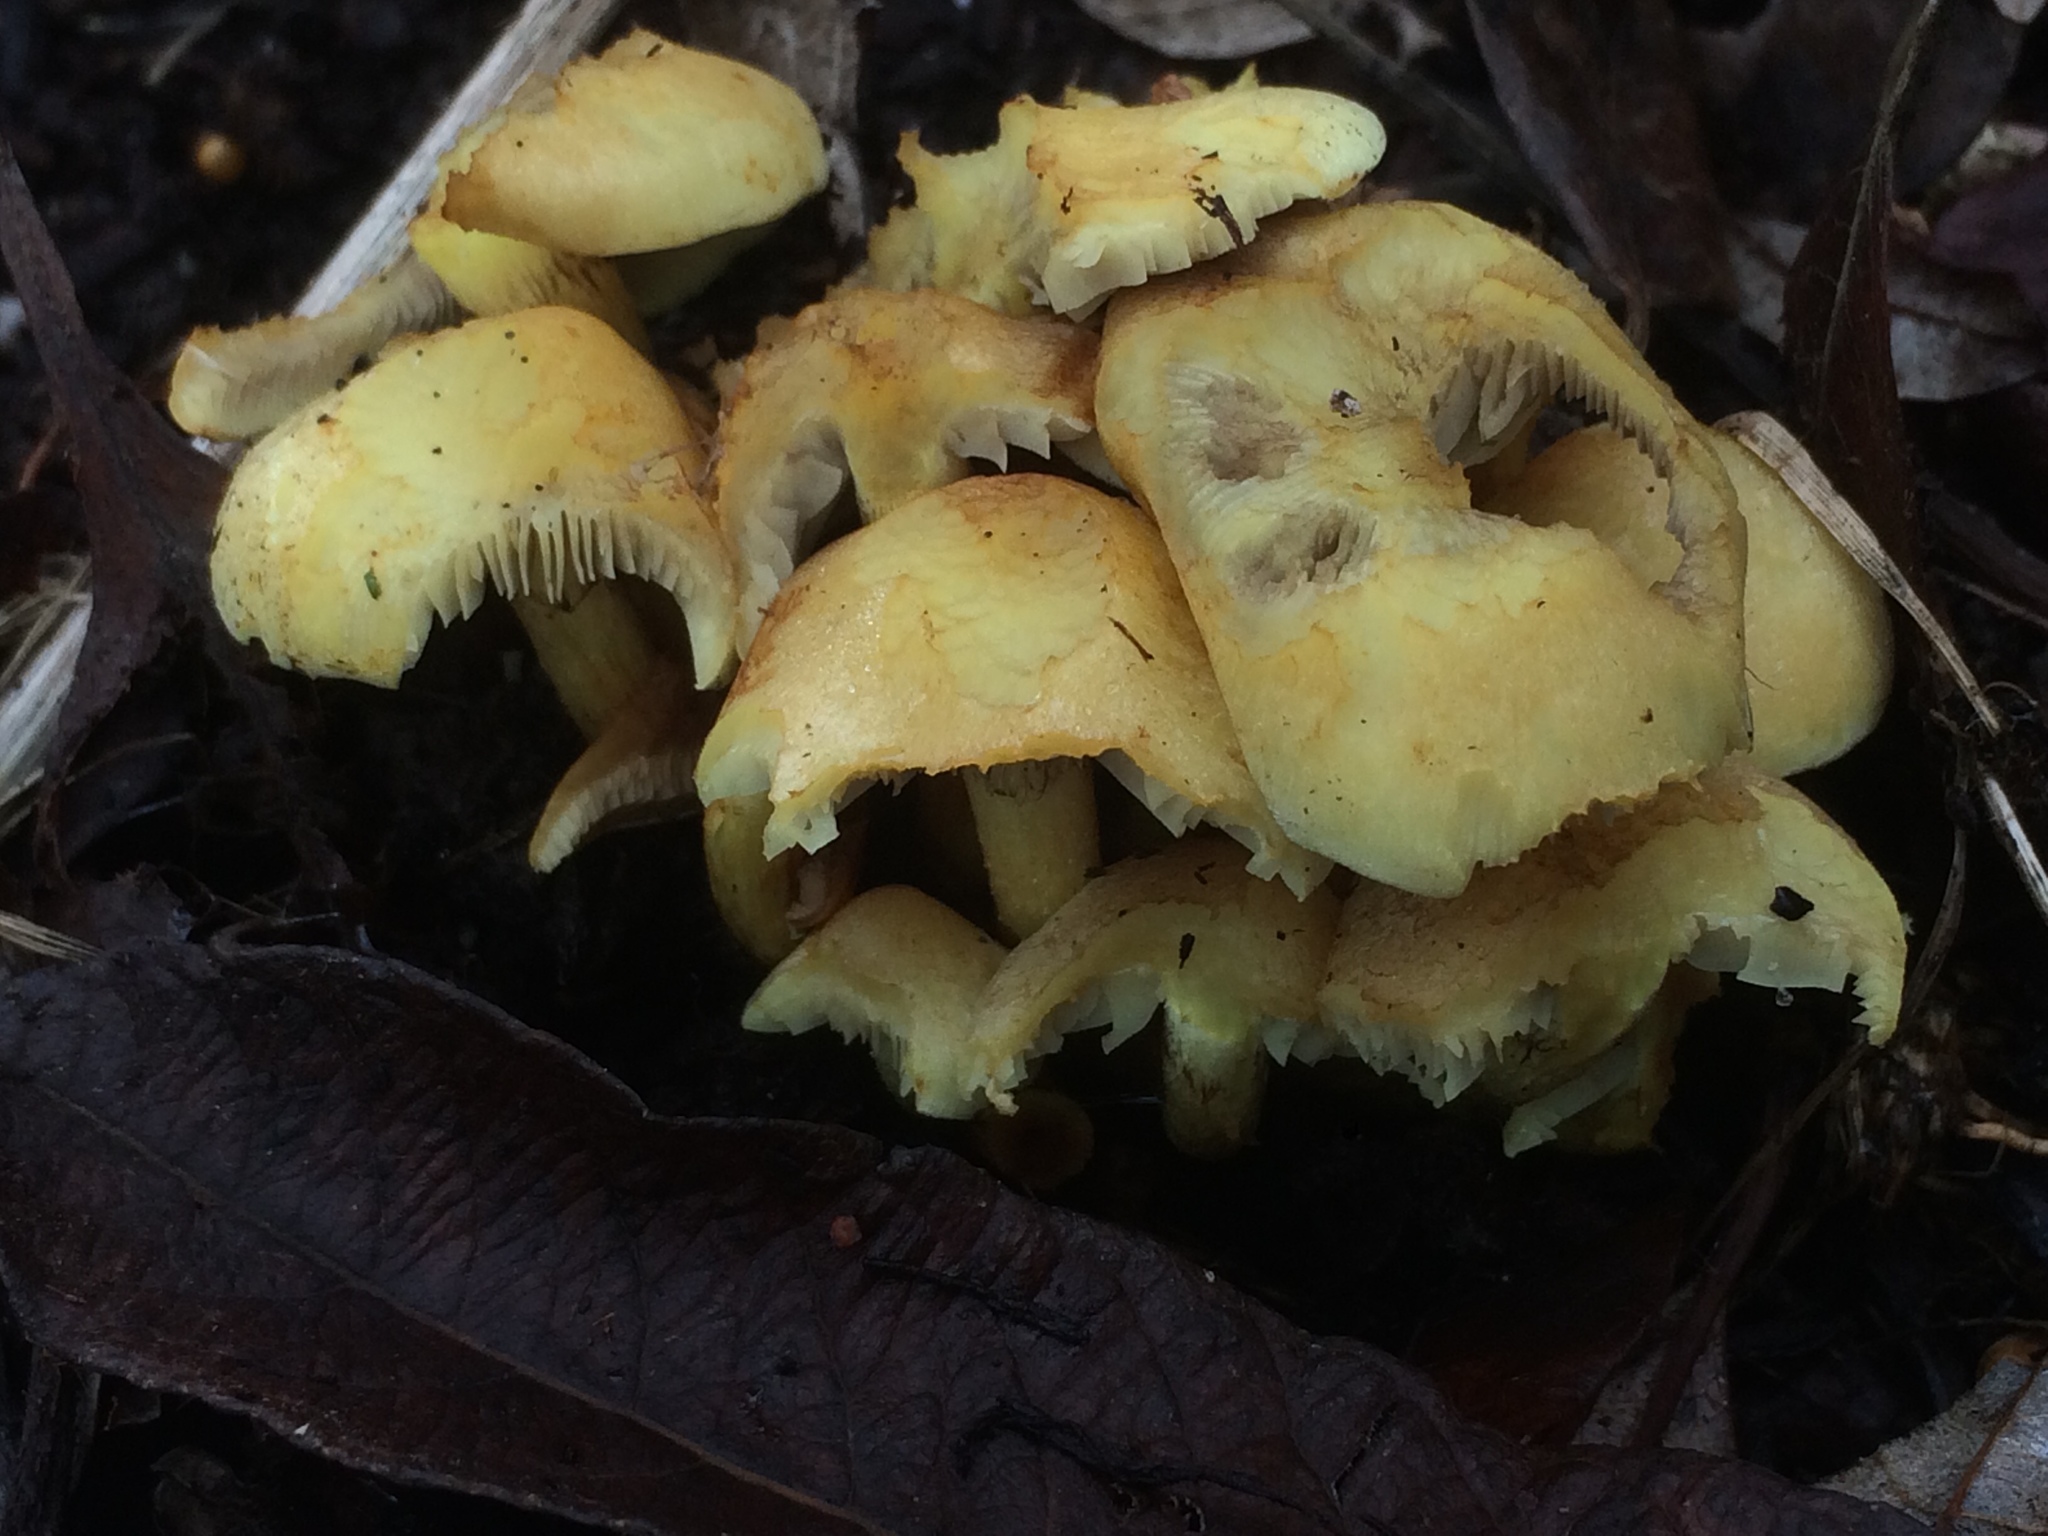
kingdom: Fungi
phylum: Basidiomycota
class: Agaricomycetes
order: Agaricales
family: Strophariaceae
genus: Hypholoma
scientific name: Hypholoma fasciculare
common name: Sulphur tuft
